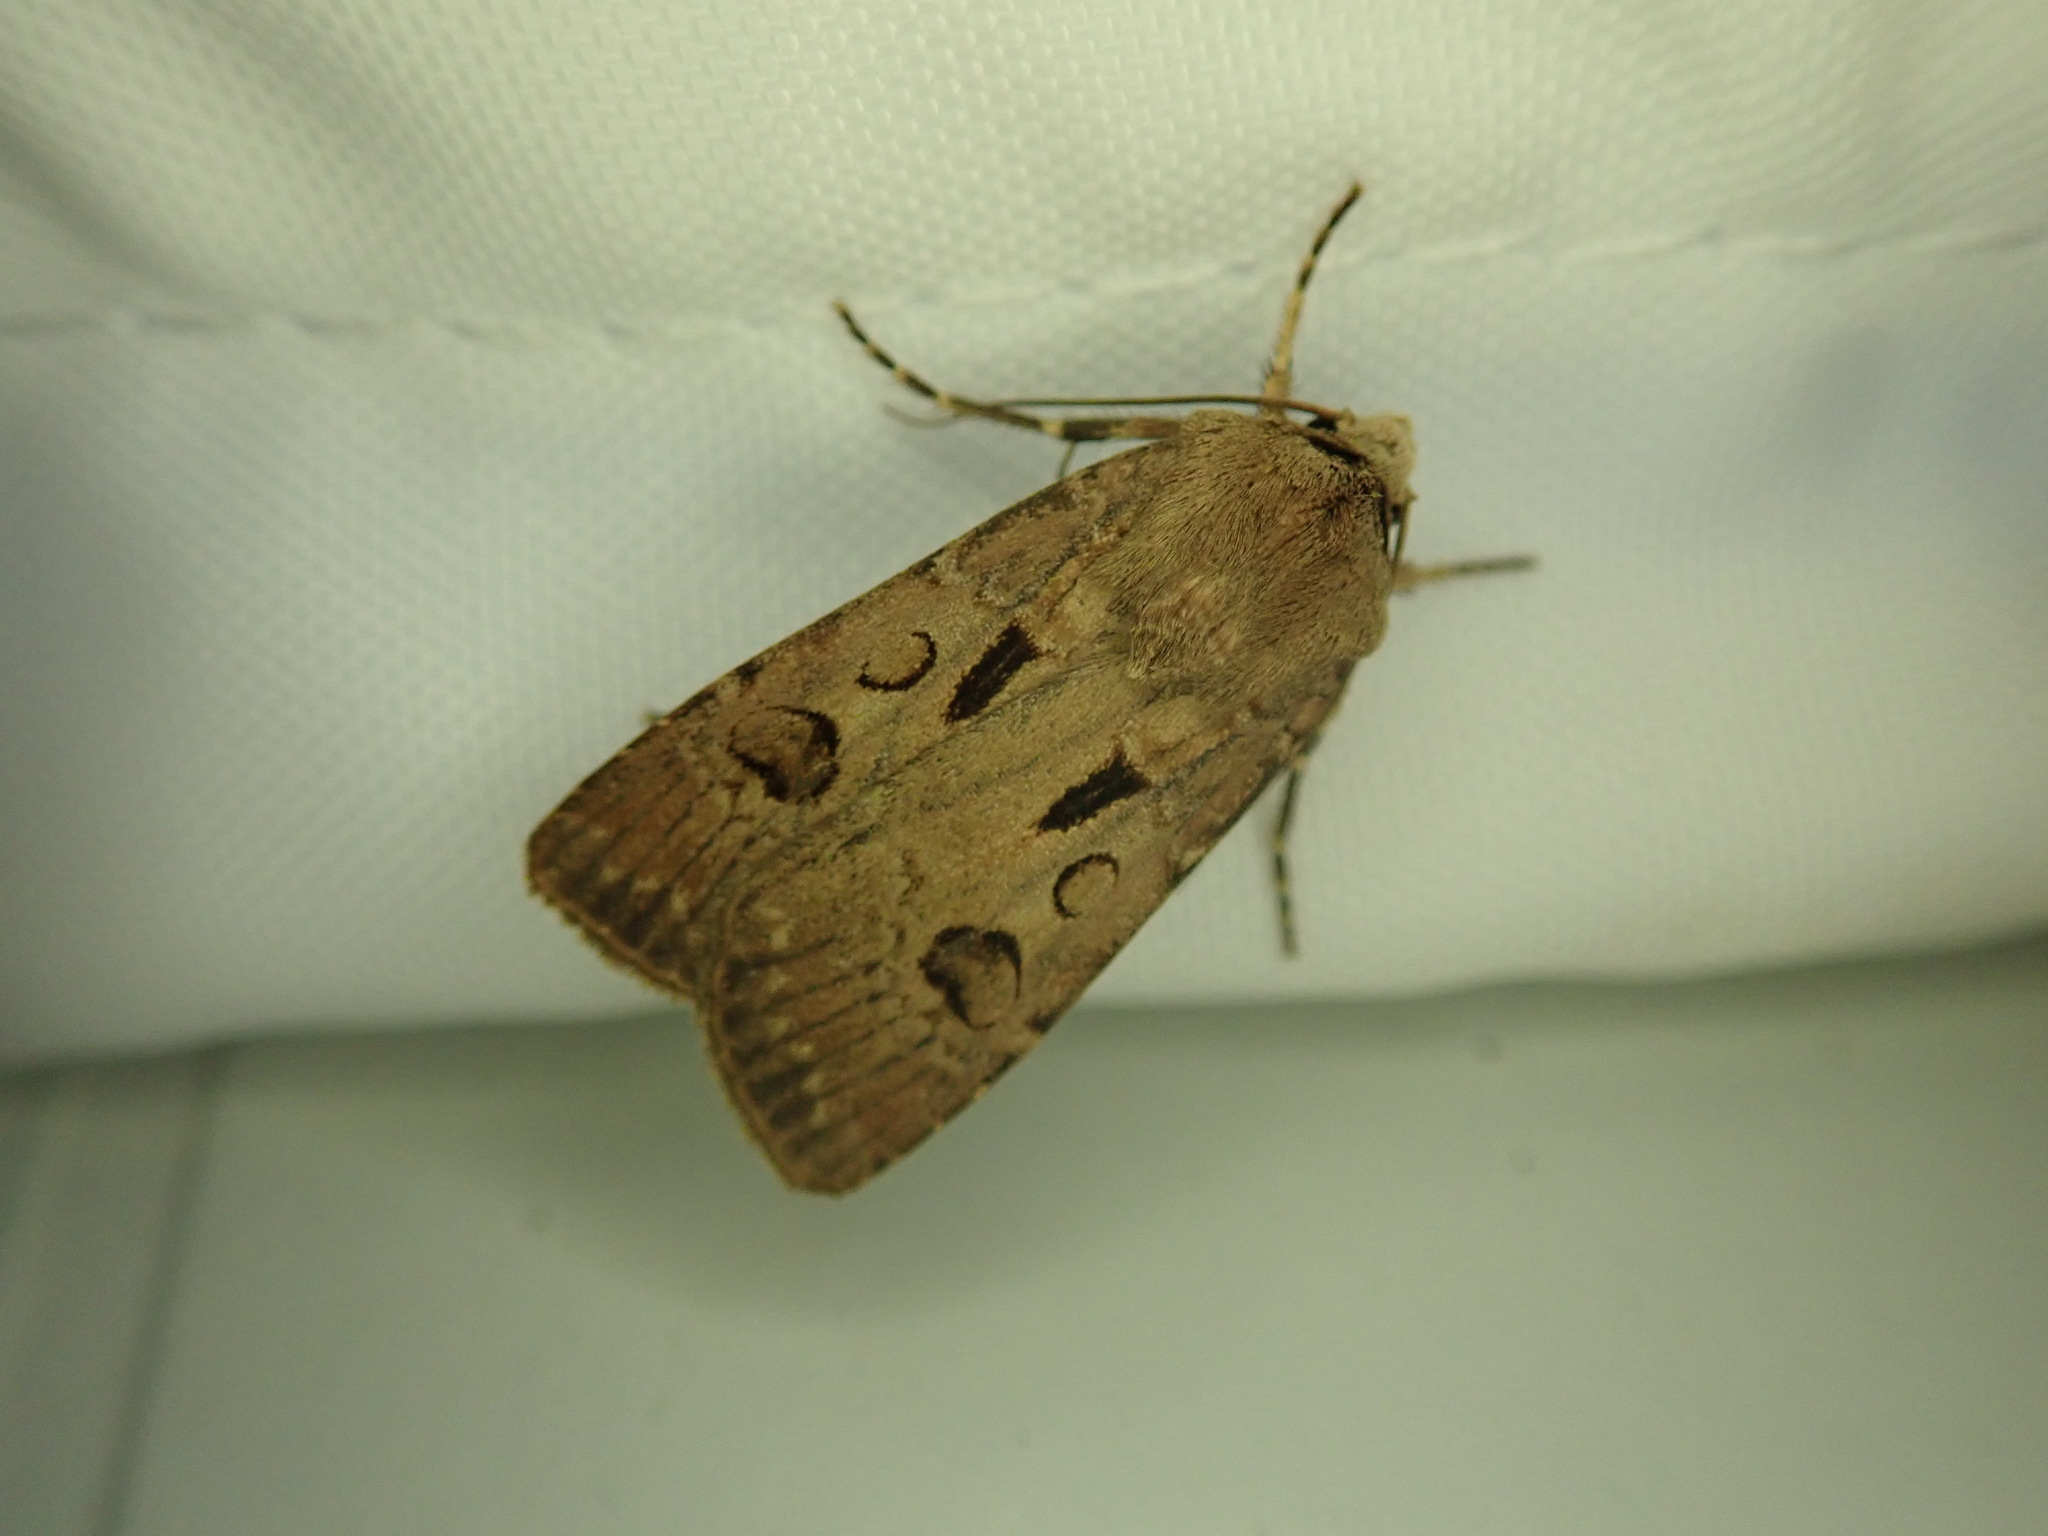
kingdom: Animalia
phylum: Arthropoda
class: Insecta
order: Lepidoptera
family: Noctuidae
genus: Agrotis
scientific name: Agrotis exclamationis
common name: Heart and dart
